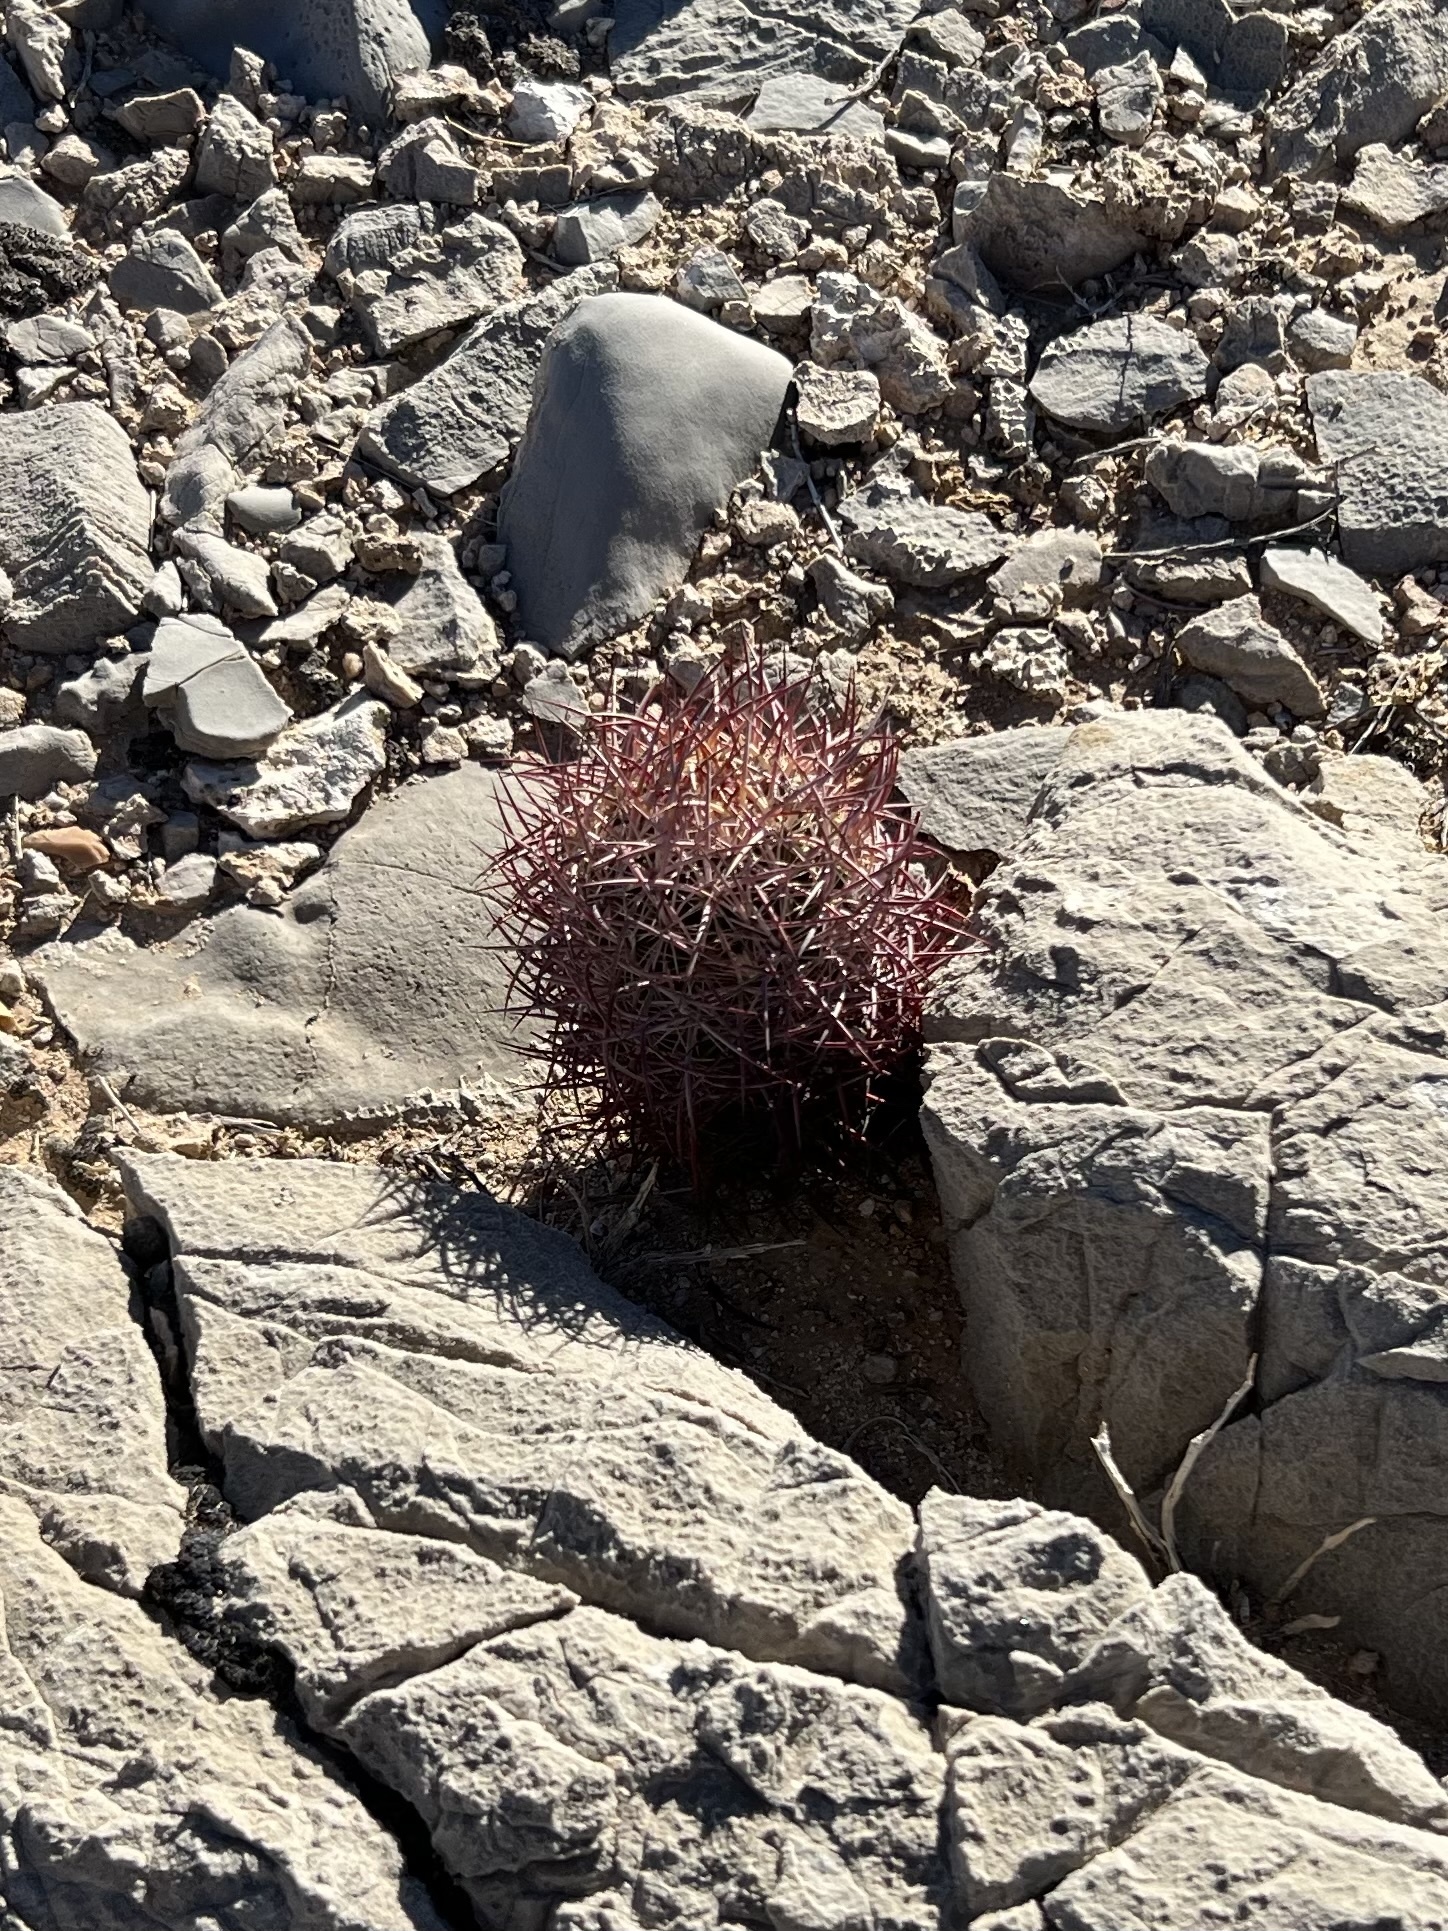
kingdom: Plantae
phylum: Tracheophyta
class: Magnoliopsida
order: Caryophyllales
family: Cactaceae
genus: Sclerocactus
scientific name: Sclerocactus johnsonii
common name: Eight-spine fishhook cactus
